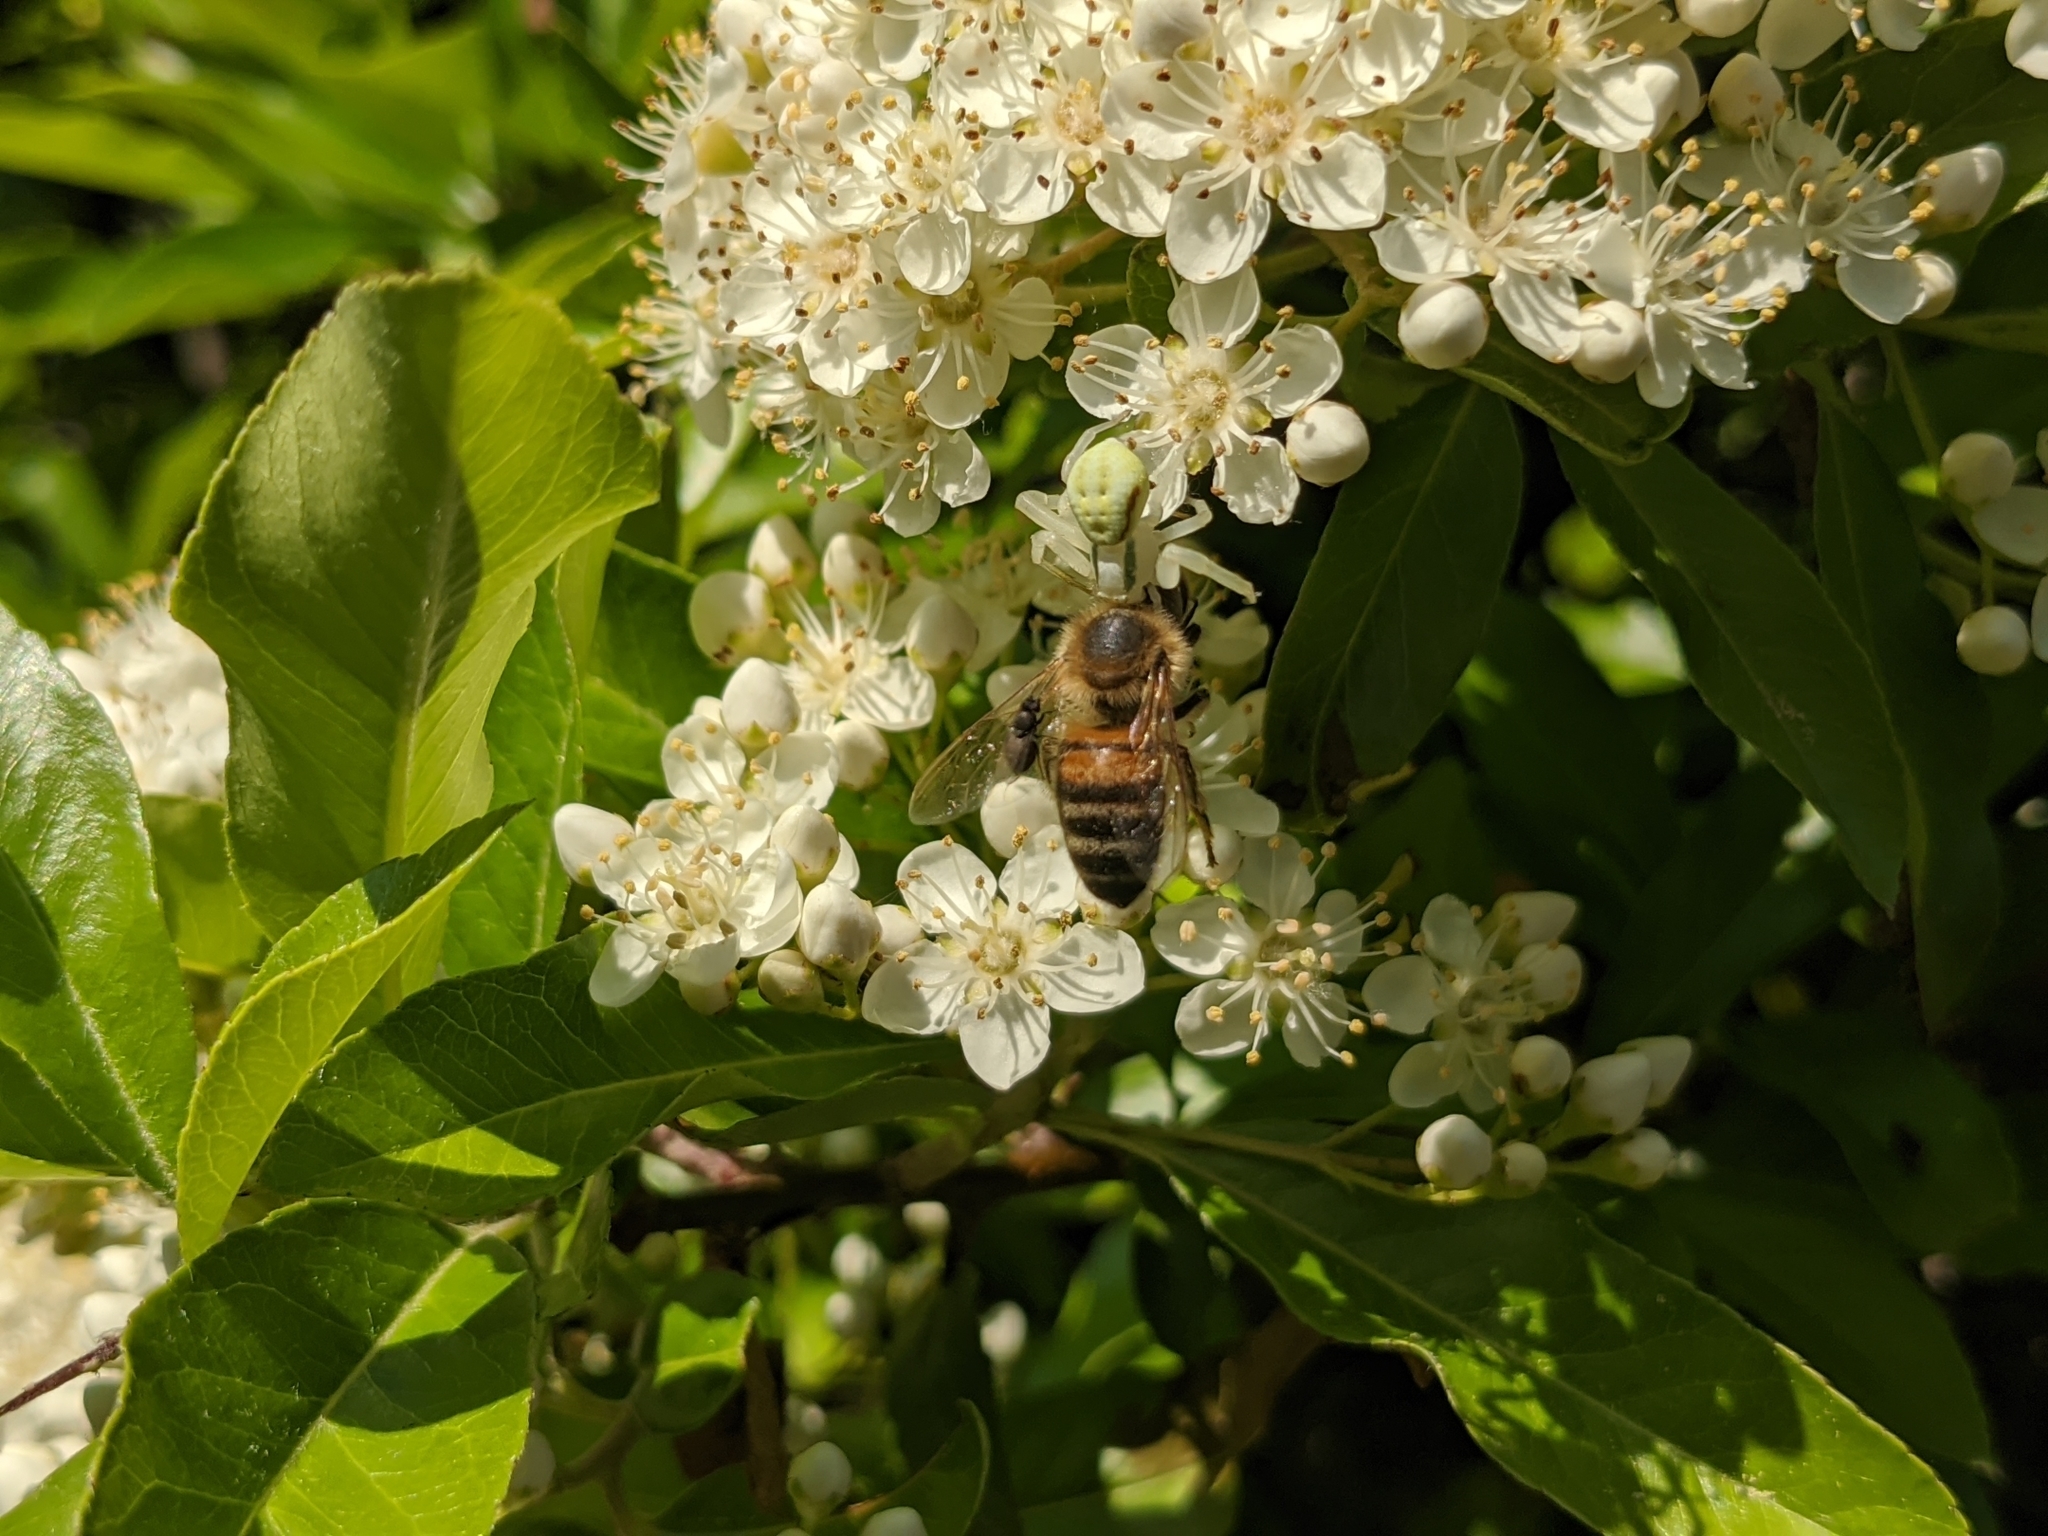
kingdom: Animalia
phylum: Arthropoda
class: Arachnida
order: Araneae
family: Thomisidae
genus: Misumena
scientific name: Misumena vatia
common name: Goldenrod crab spider
